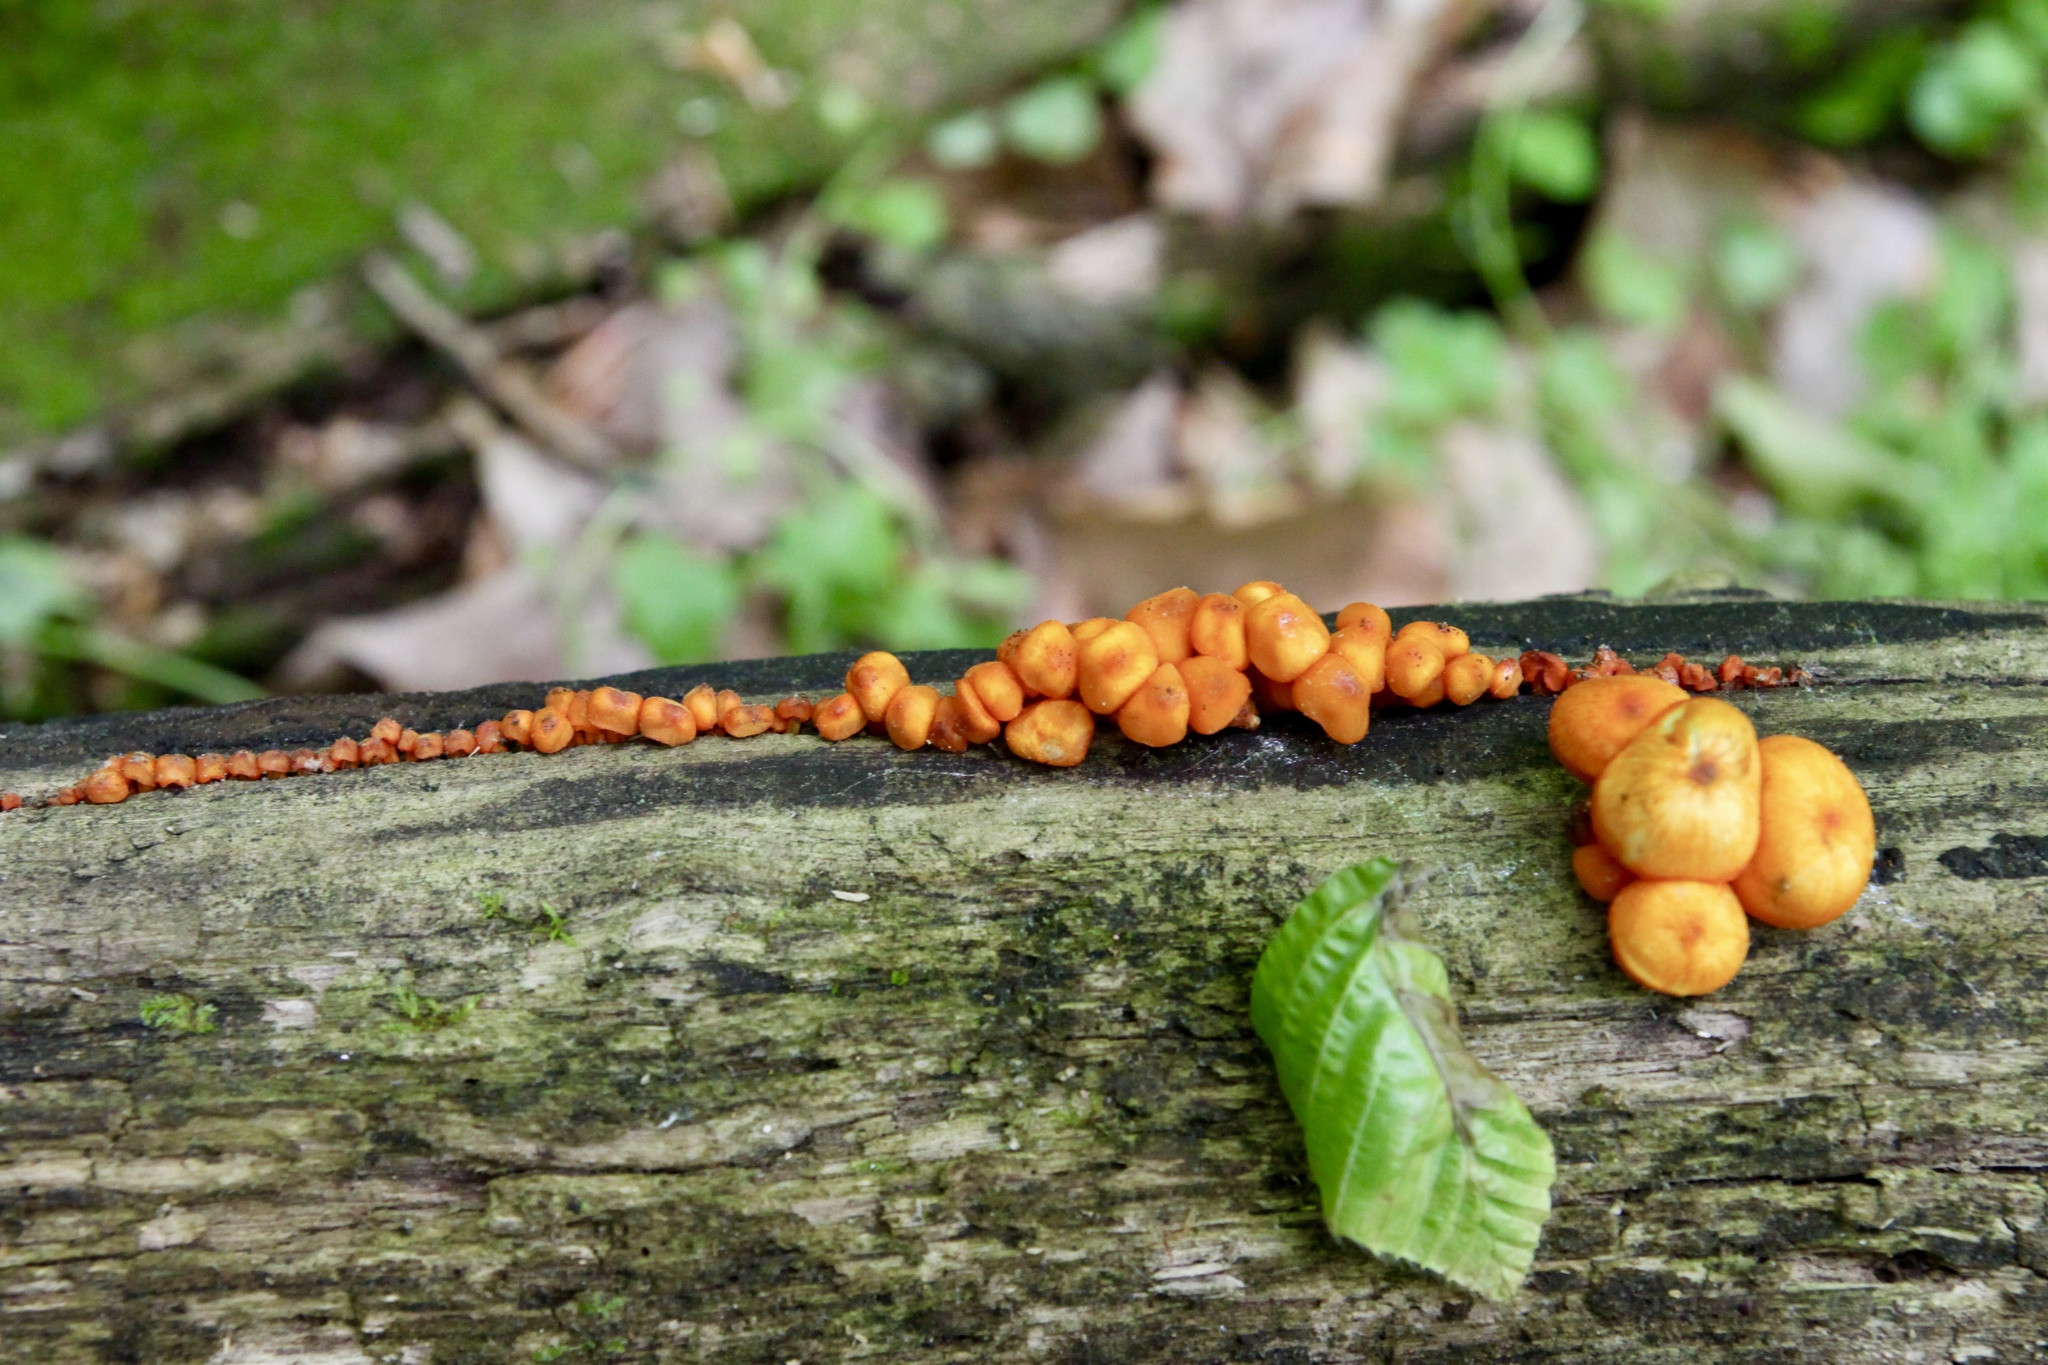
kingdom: Fungi
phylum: Basidiomycota
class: Agaricomycetes
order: Agaricales
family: Mycenaceae
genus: Mycena
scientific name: Mycena leaiana
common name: Orange mycena
